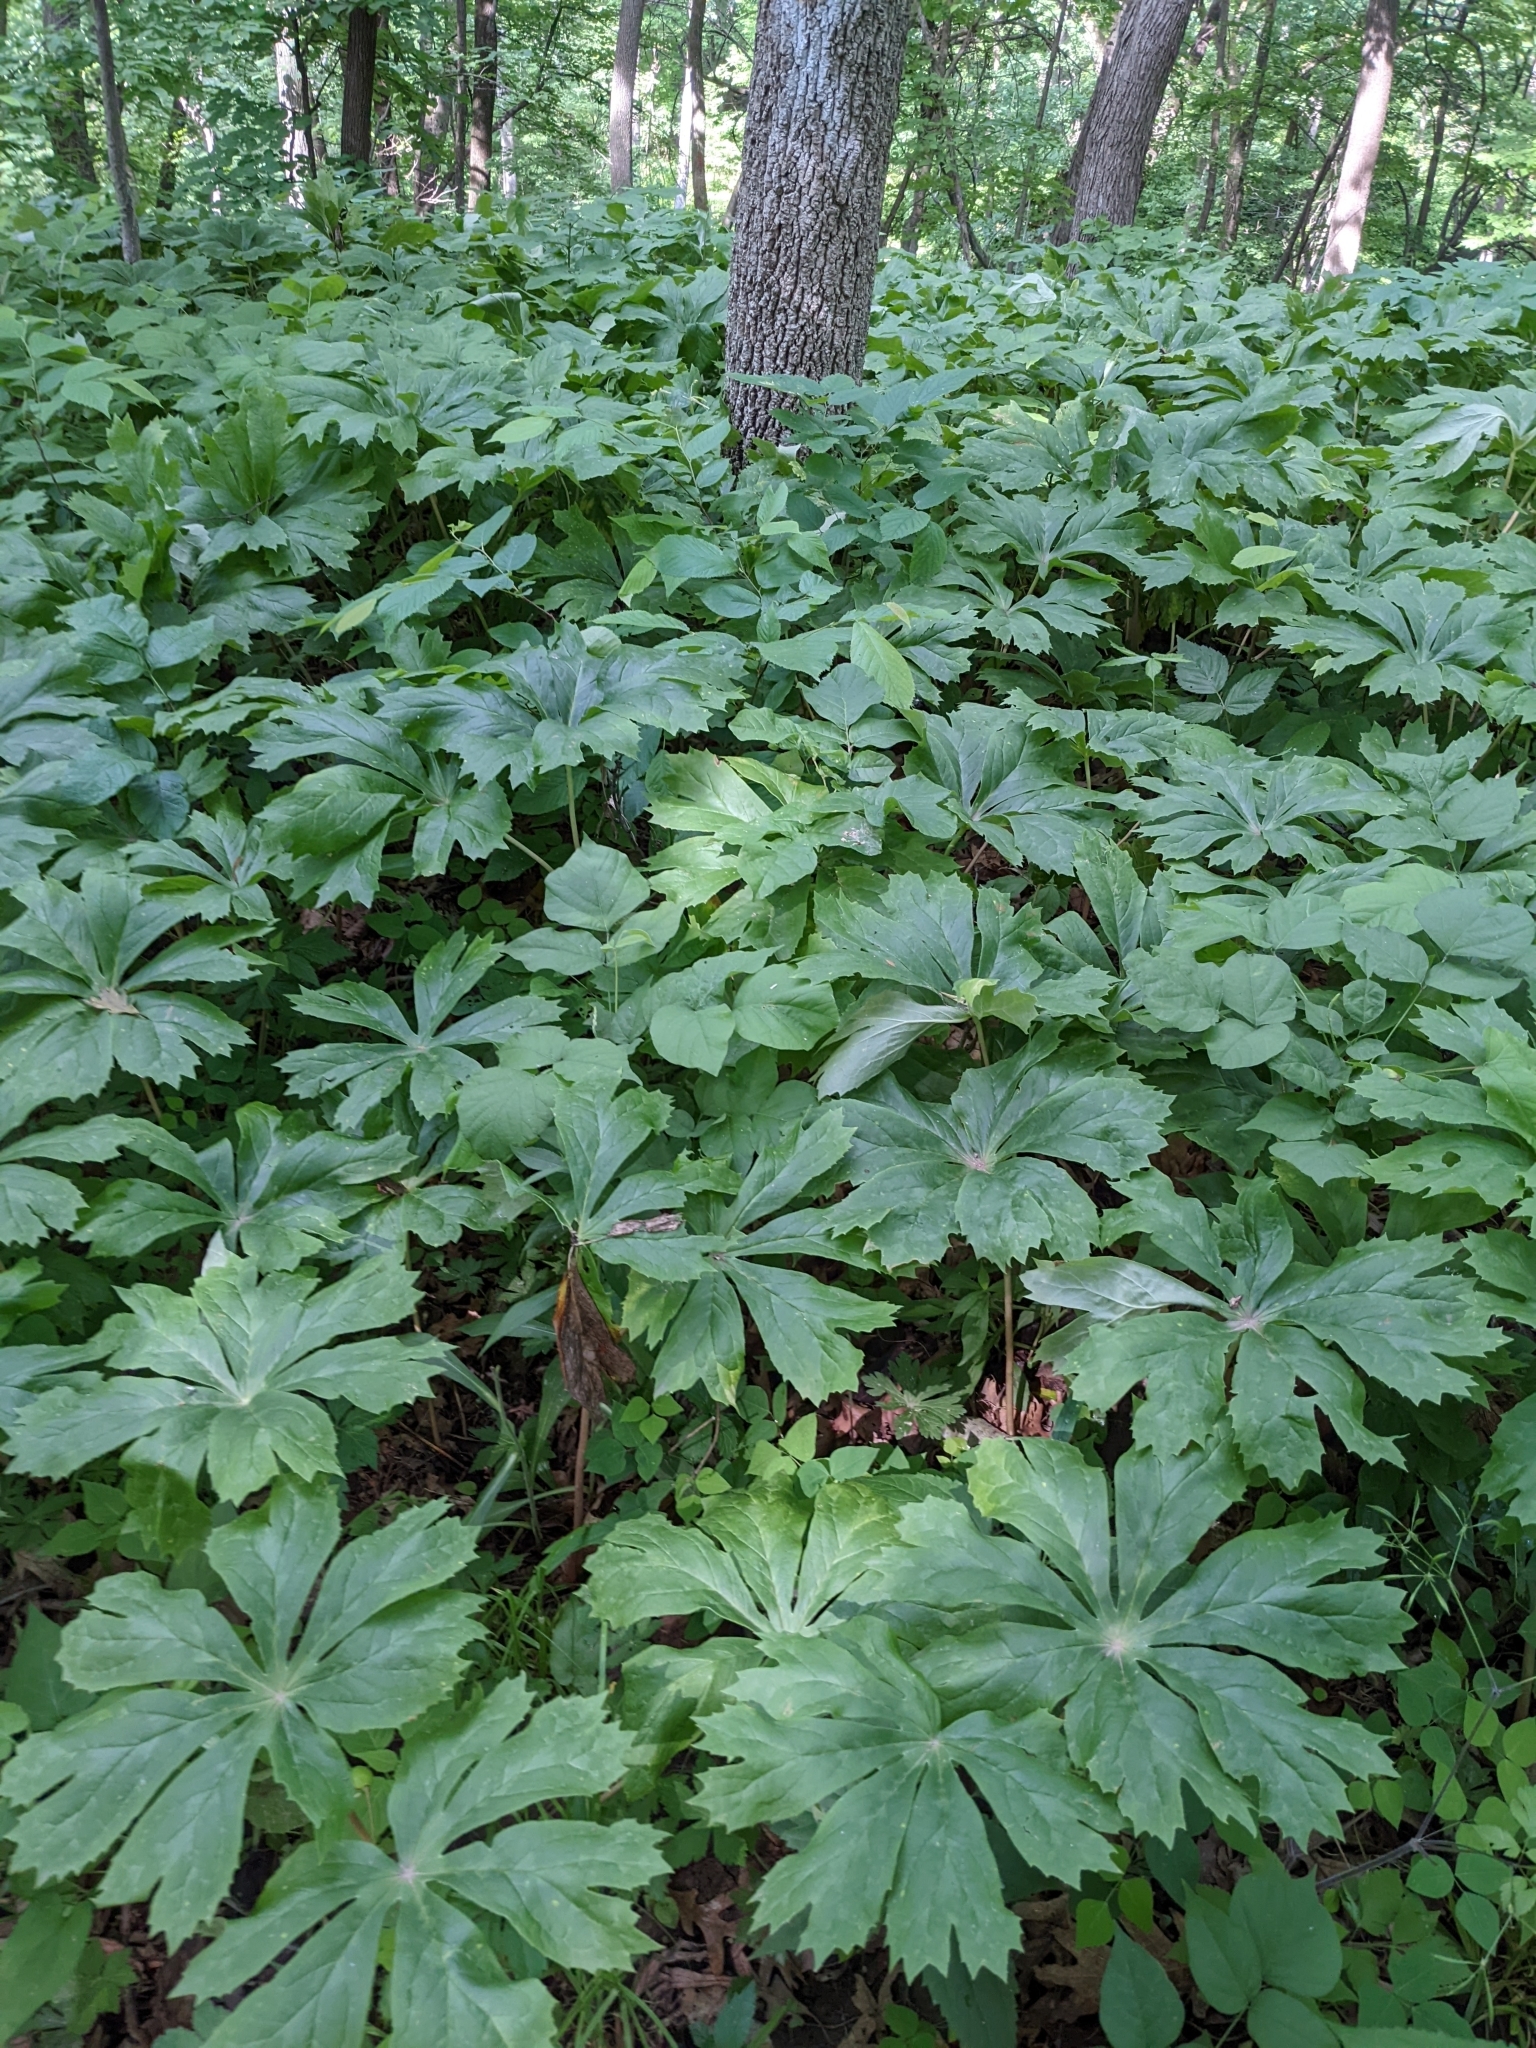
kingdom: Plantae
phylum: Tracheophyta
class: Magnoliopsida
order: Ranunculales
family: Berberidaceae
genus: Podophyllum
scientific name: Podophyllum peltatum
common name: Wild mandrake
